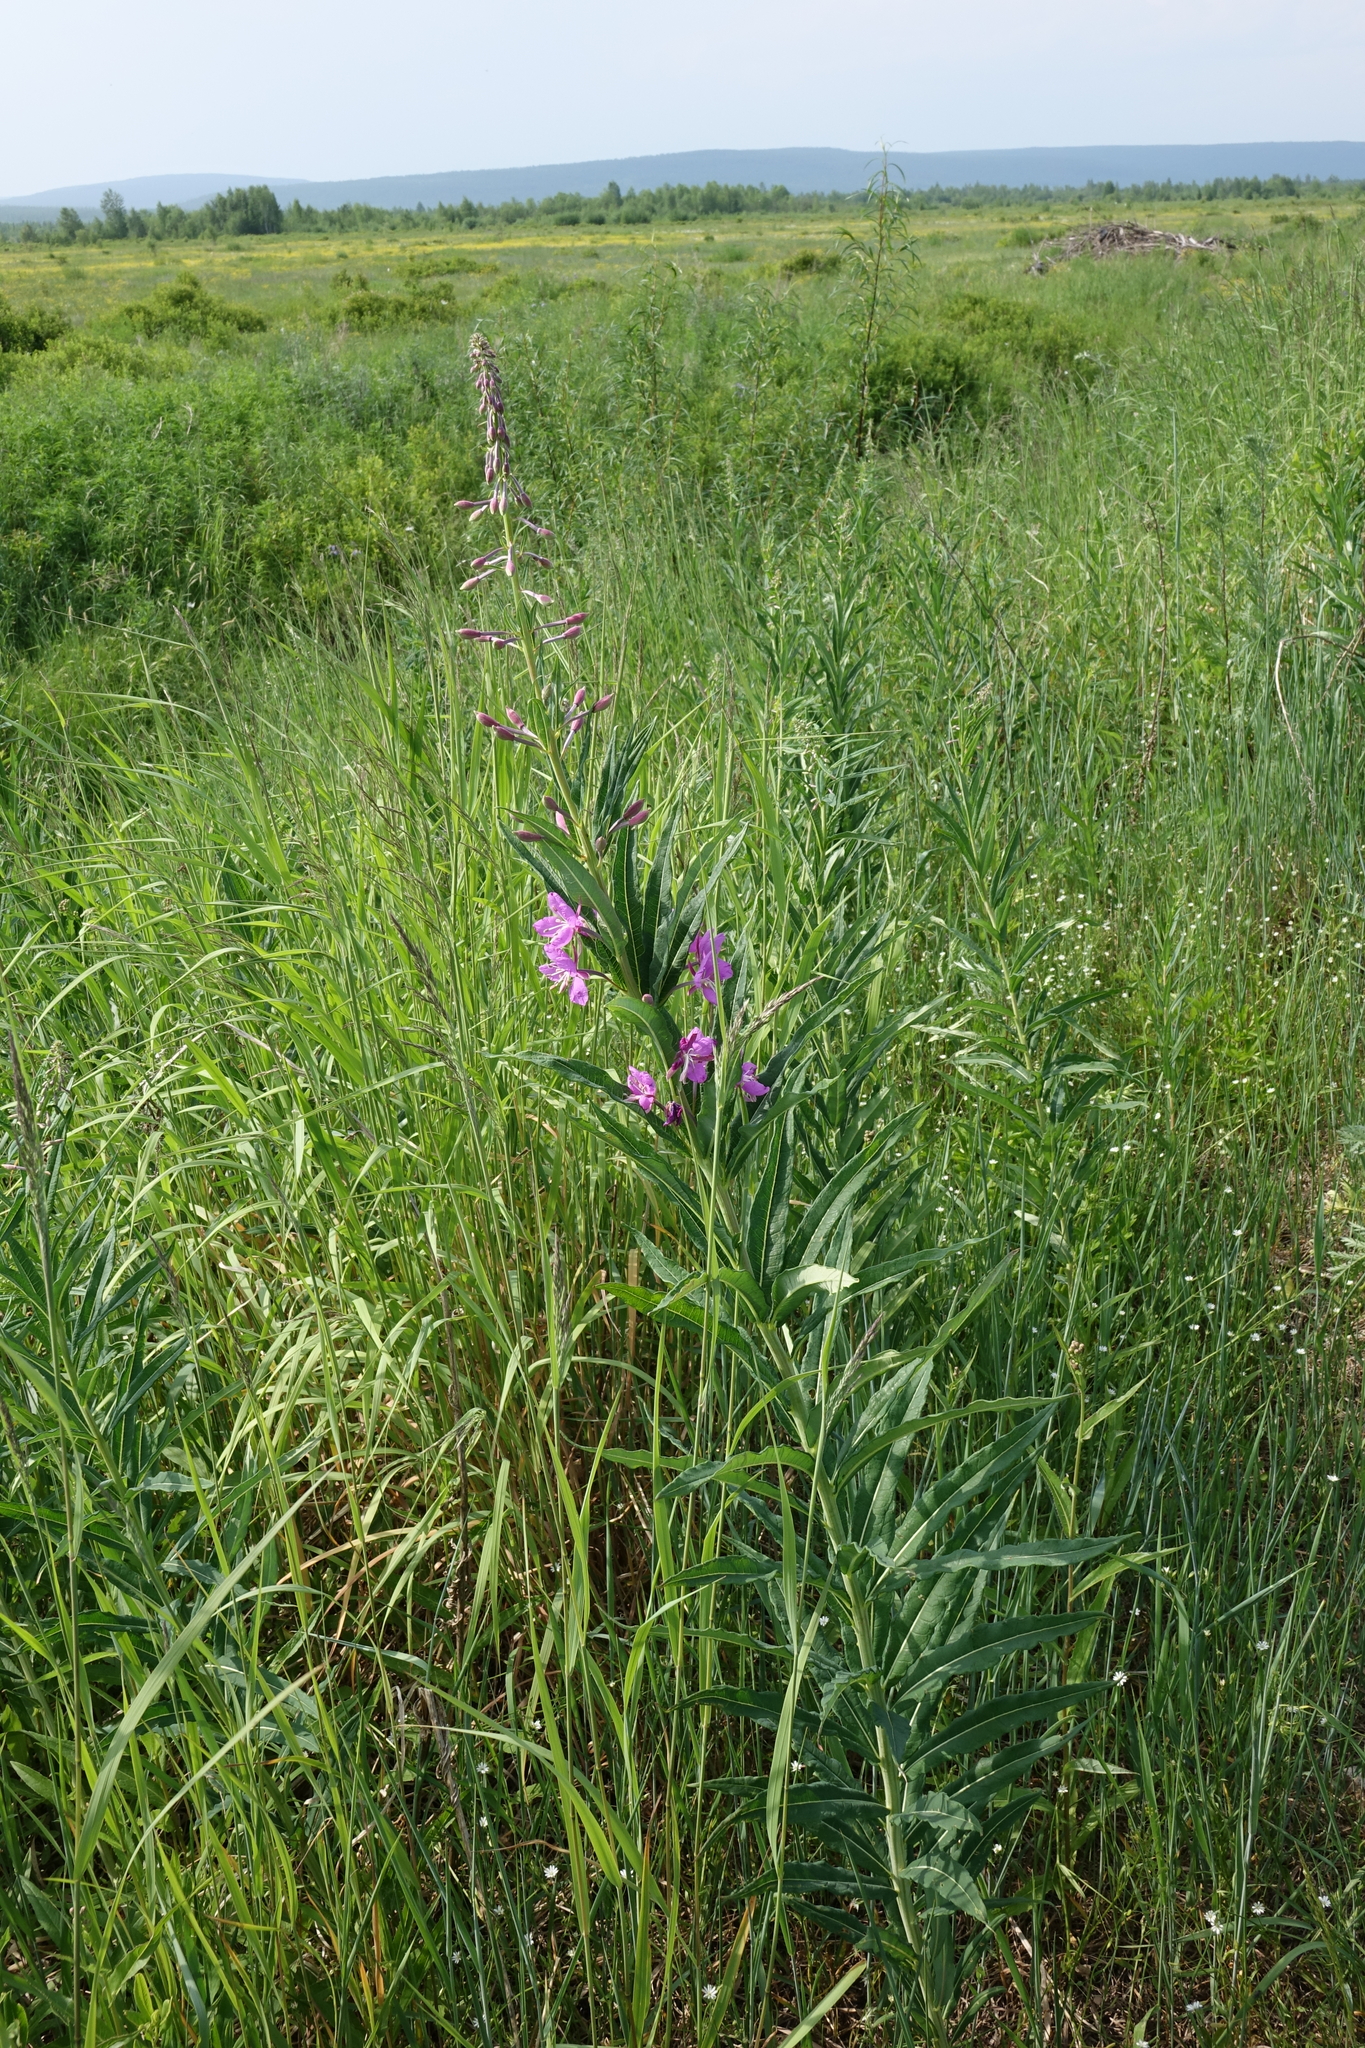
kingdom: Plantae
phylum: Tracheophyta
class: Magnoliopsida
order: Myrtales
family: Onagraceae
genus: Chamaenerion
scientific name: Chamaenerion angustifolium
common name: Fireweed
